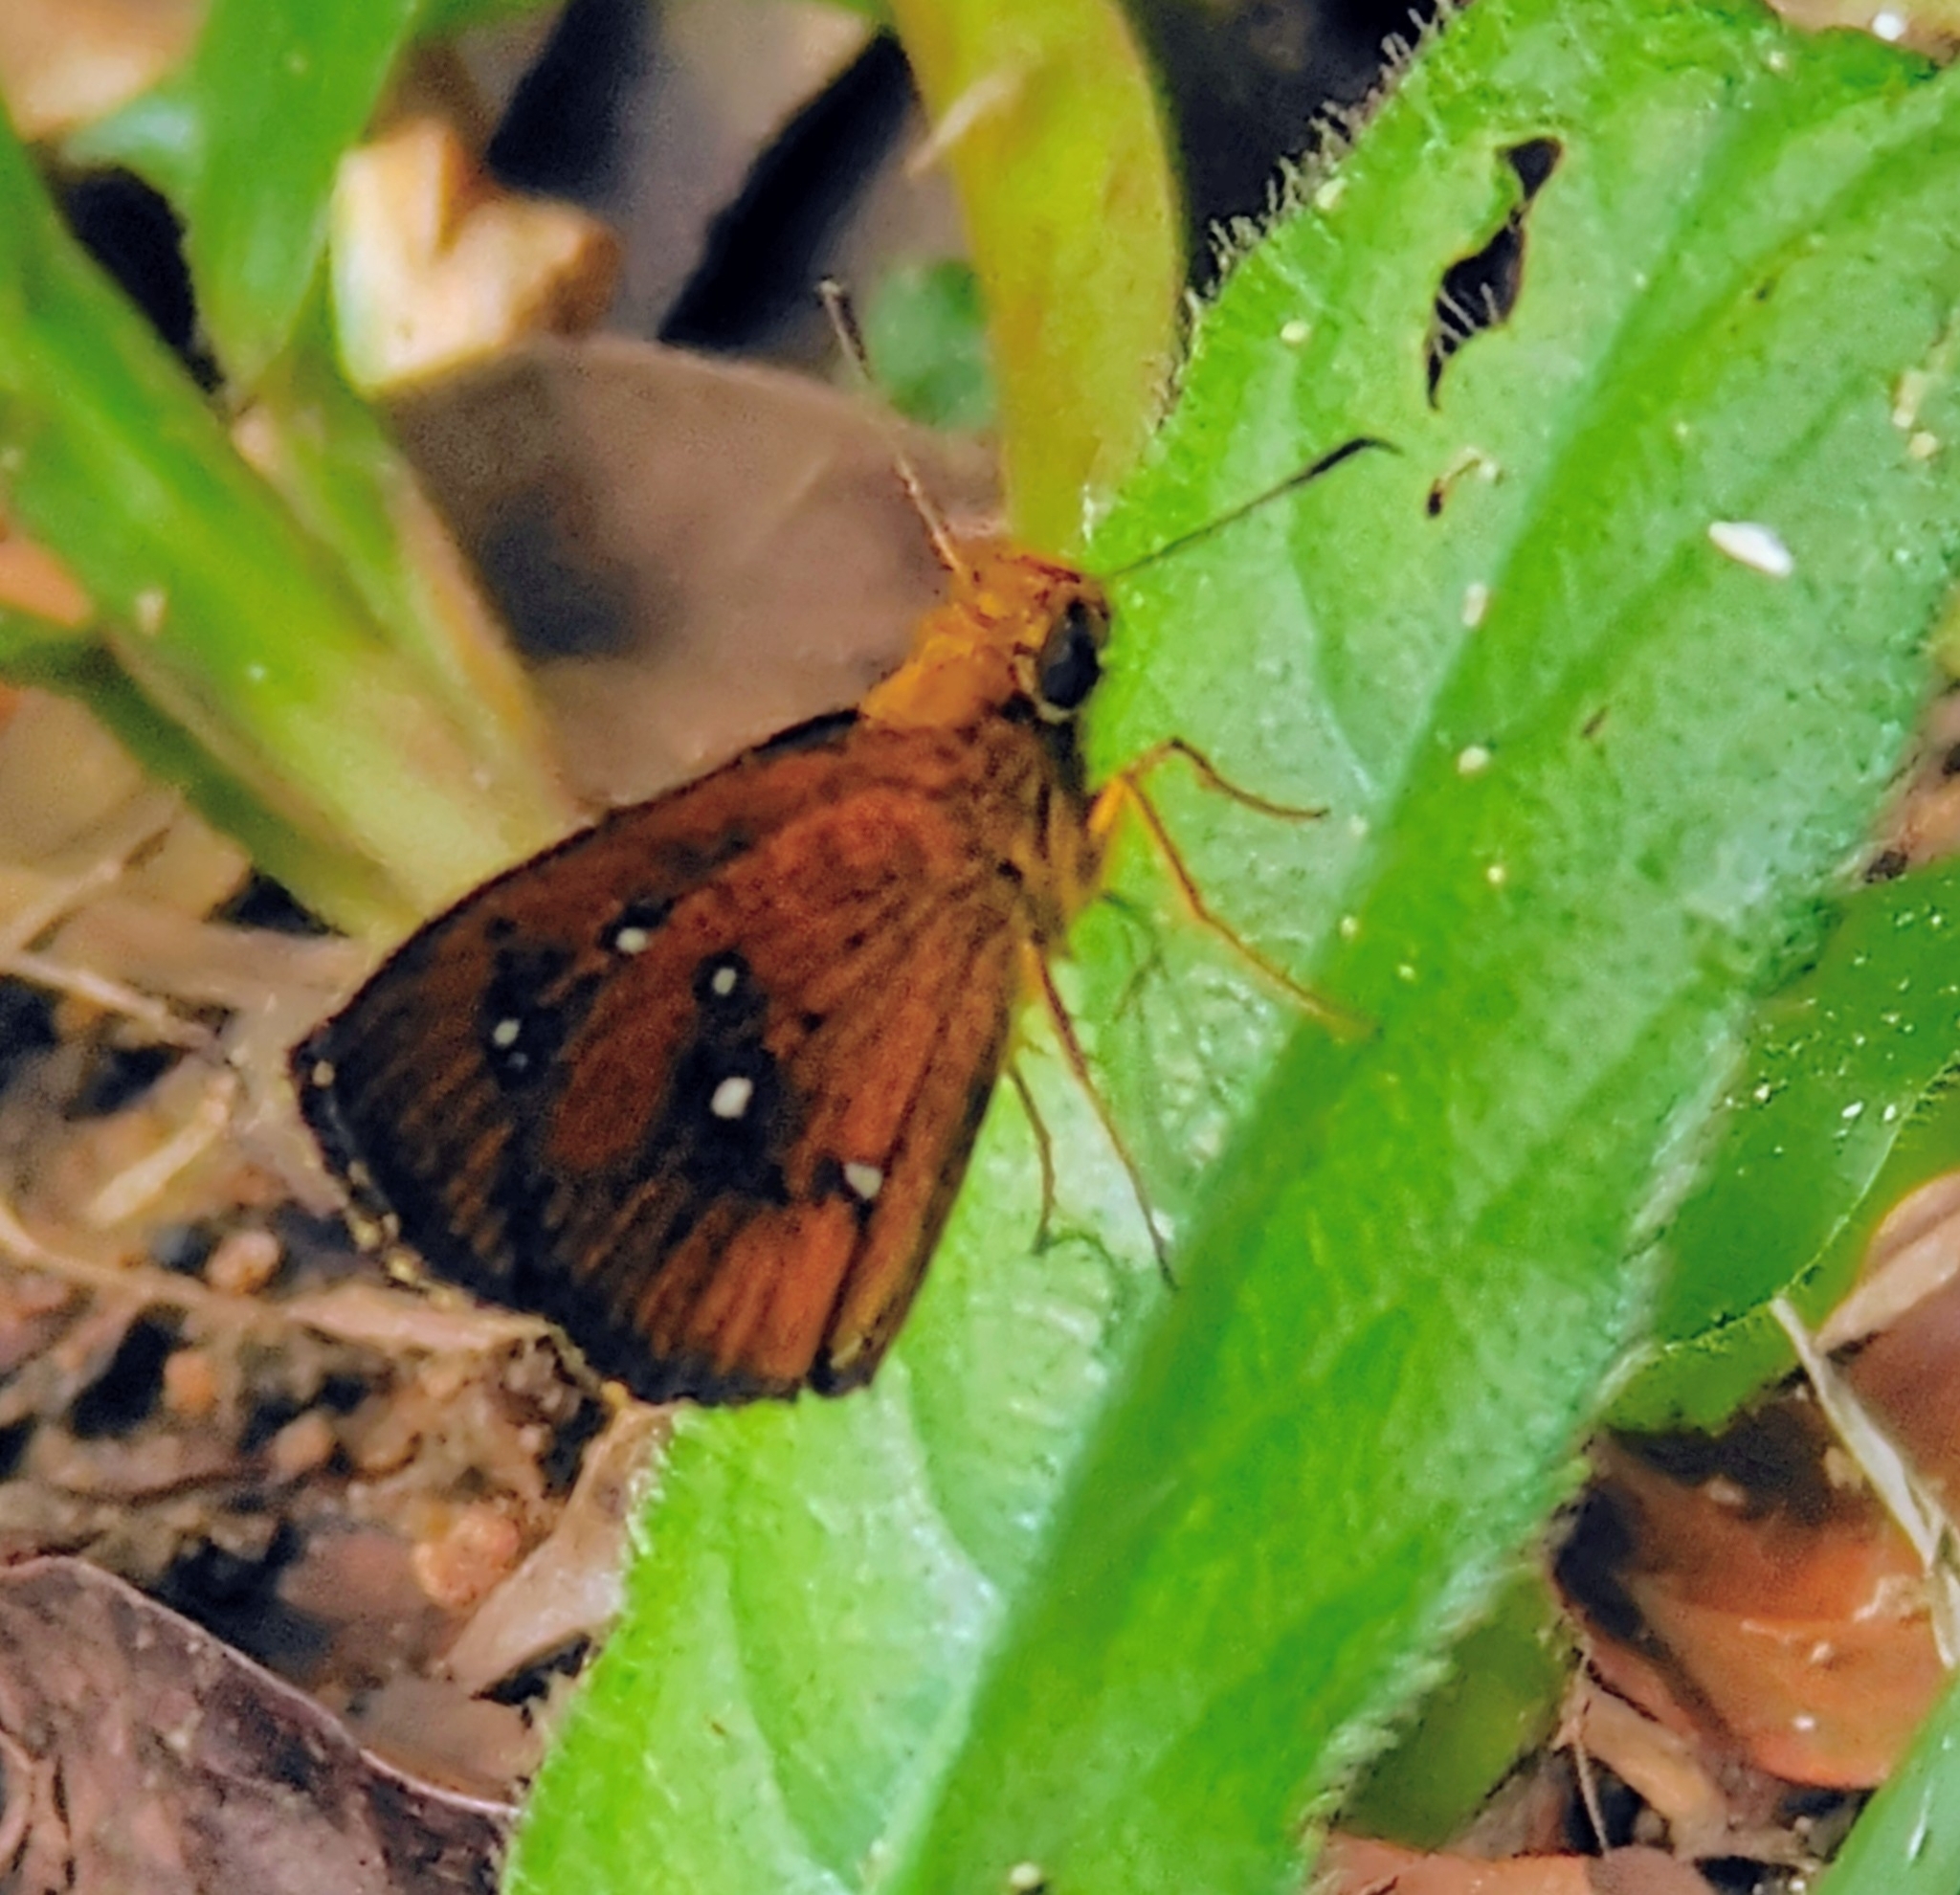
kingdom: Animalia
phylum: Arthropoda
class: Insecta
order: Lepidoptera
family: Hesperiidae
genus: Iambrix
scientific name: Iambrix salsala
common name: Chestnut bob
